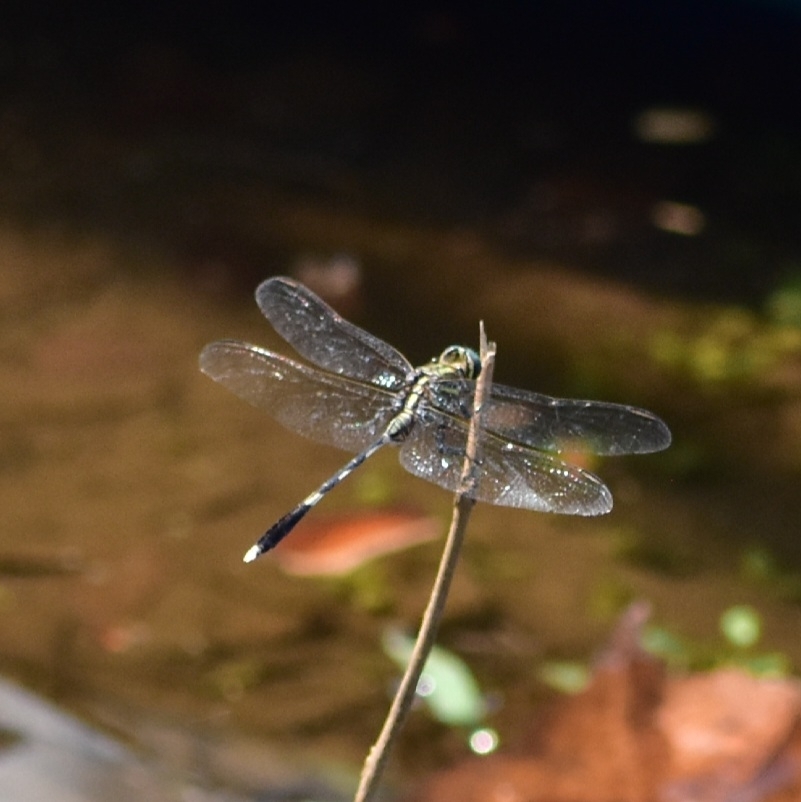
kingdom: Animalia
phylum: Arthropoda
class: Insecta
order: Odonata
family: Libellulidae
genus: Orthetrum
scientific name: Orthetrum sabina
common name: Slender skimmer
